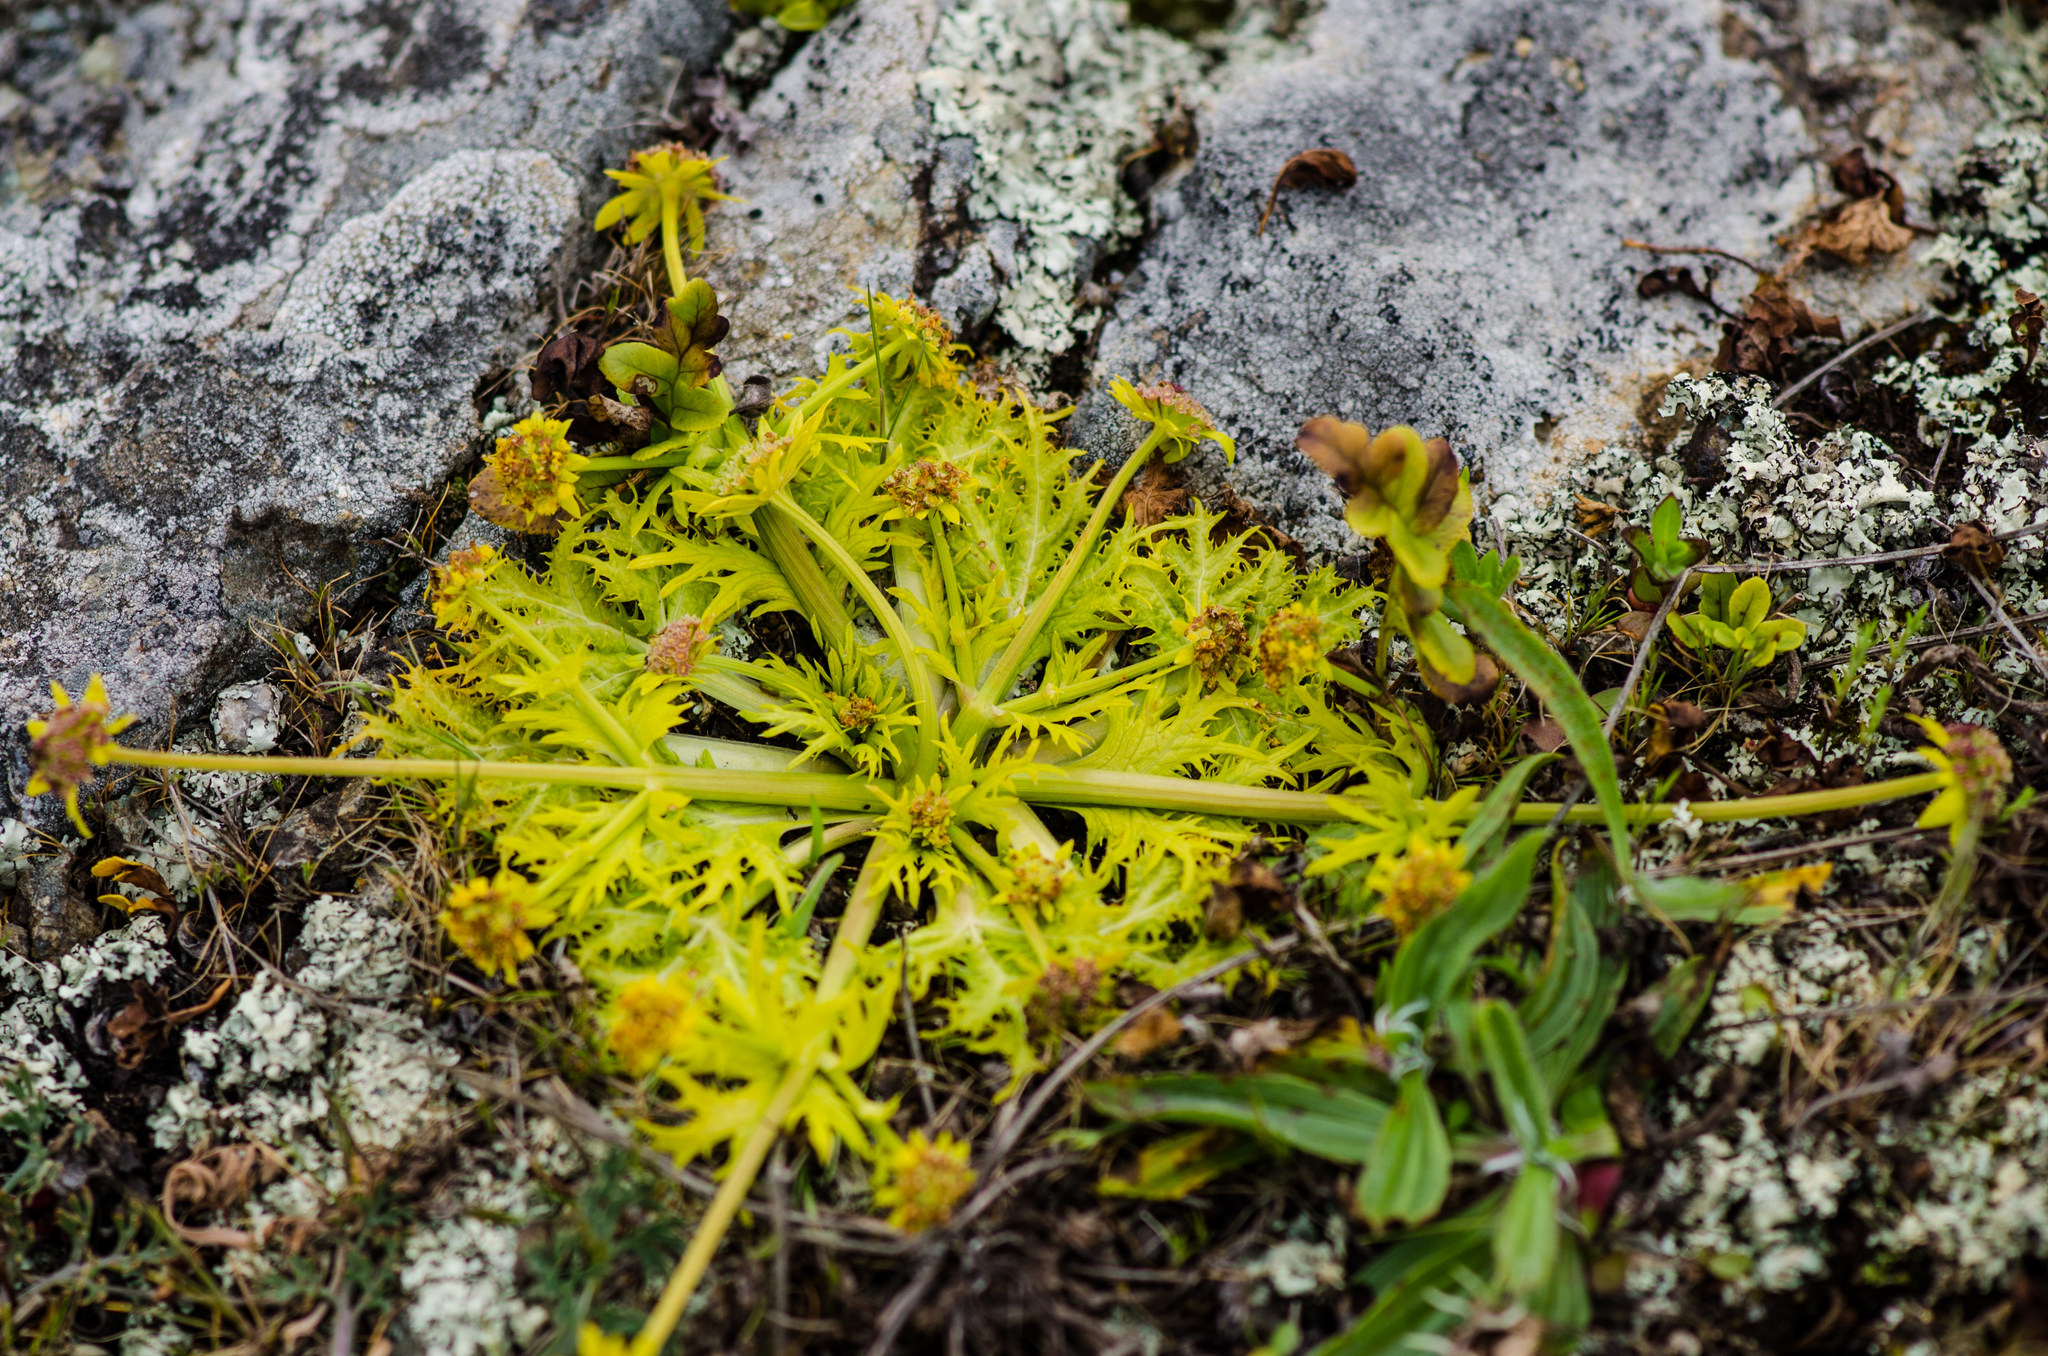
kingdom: Plantae
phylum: Tracheophyta
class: Magnoliopsida
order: Apiales
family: Apiaceae
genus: Sanicula
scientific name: Sanicula arctopoides
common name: Footsteps-of-spring
